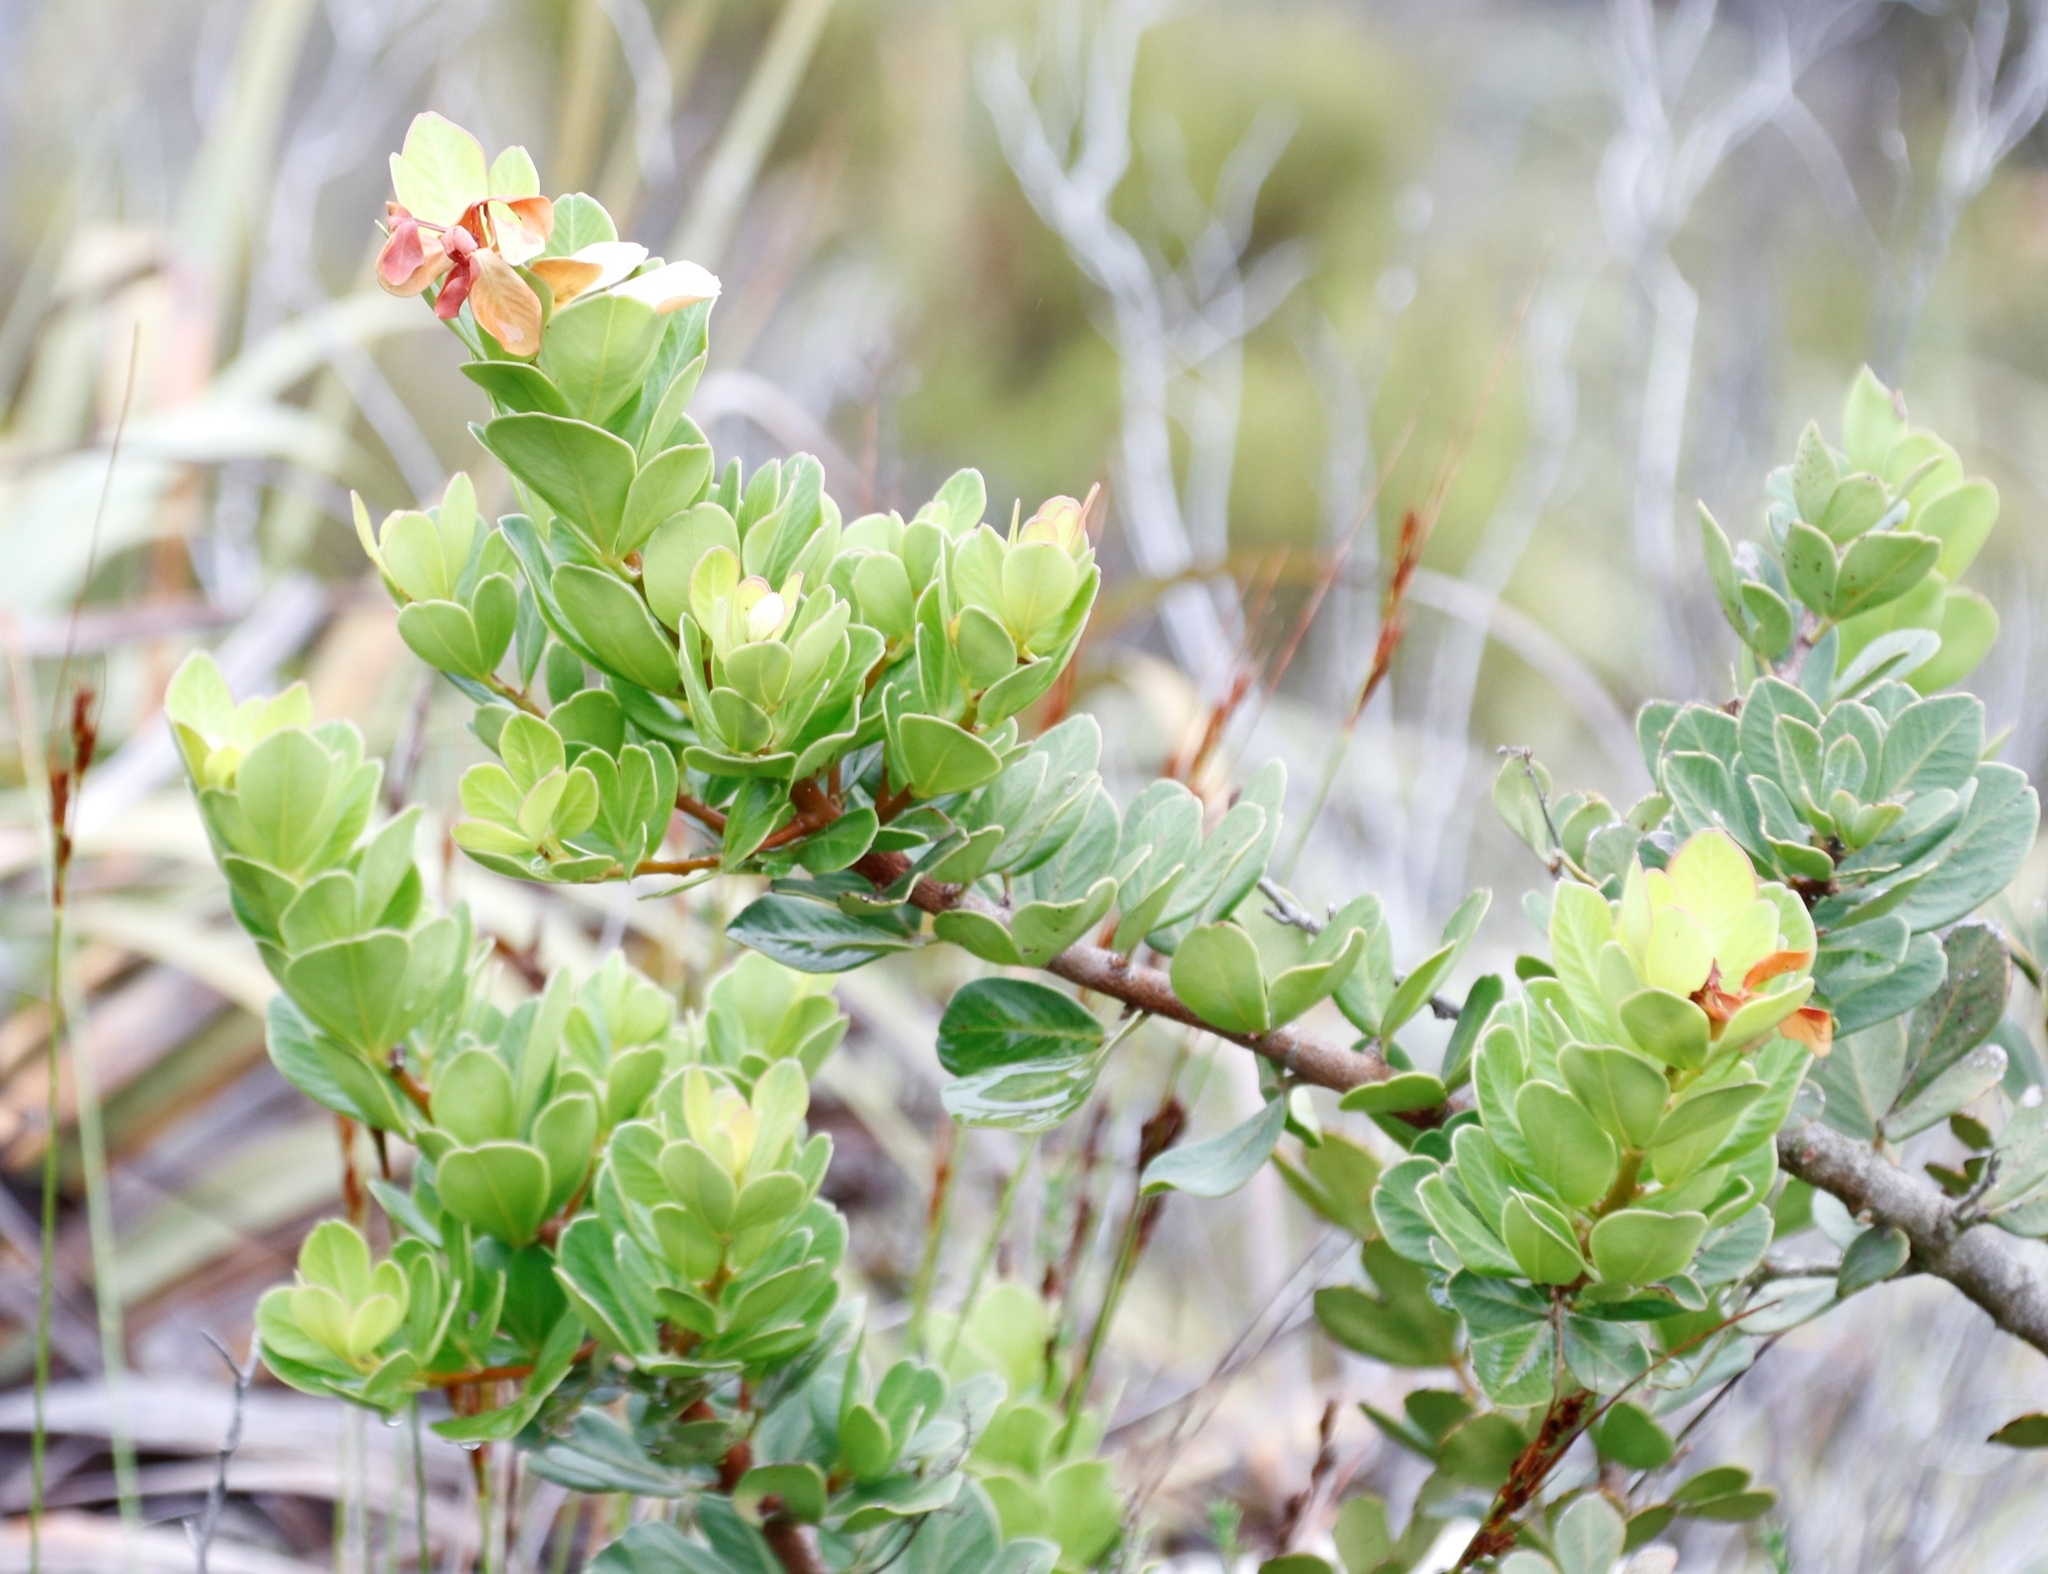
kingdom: Plantae
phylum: Tracheophyta
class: Magnoliopsida
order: Sapindales
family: Anacardiaceae
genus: Searsia
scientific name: Searsia scytophylla
